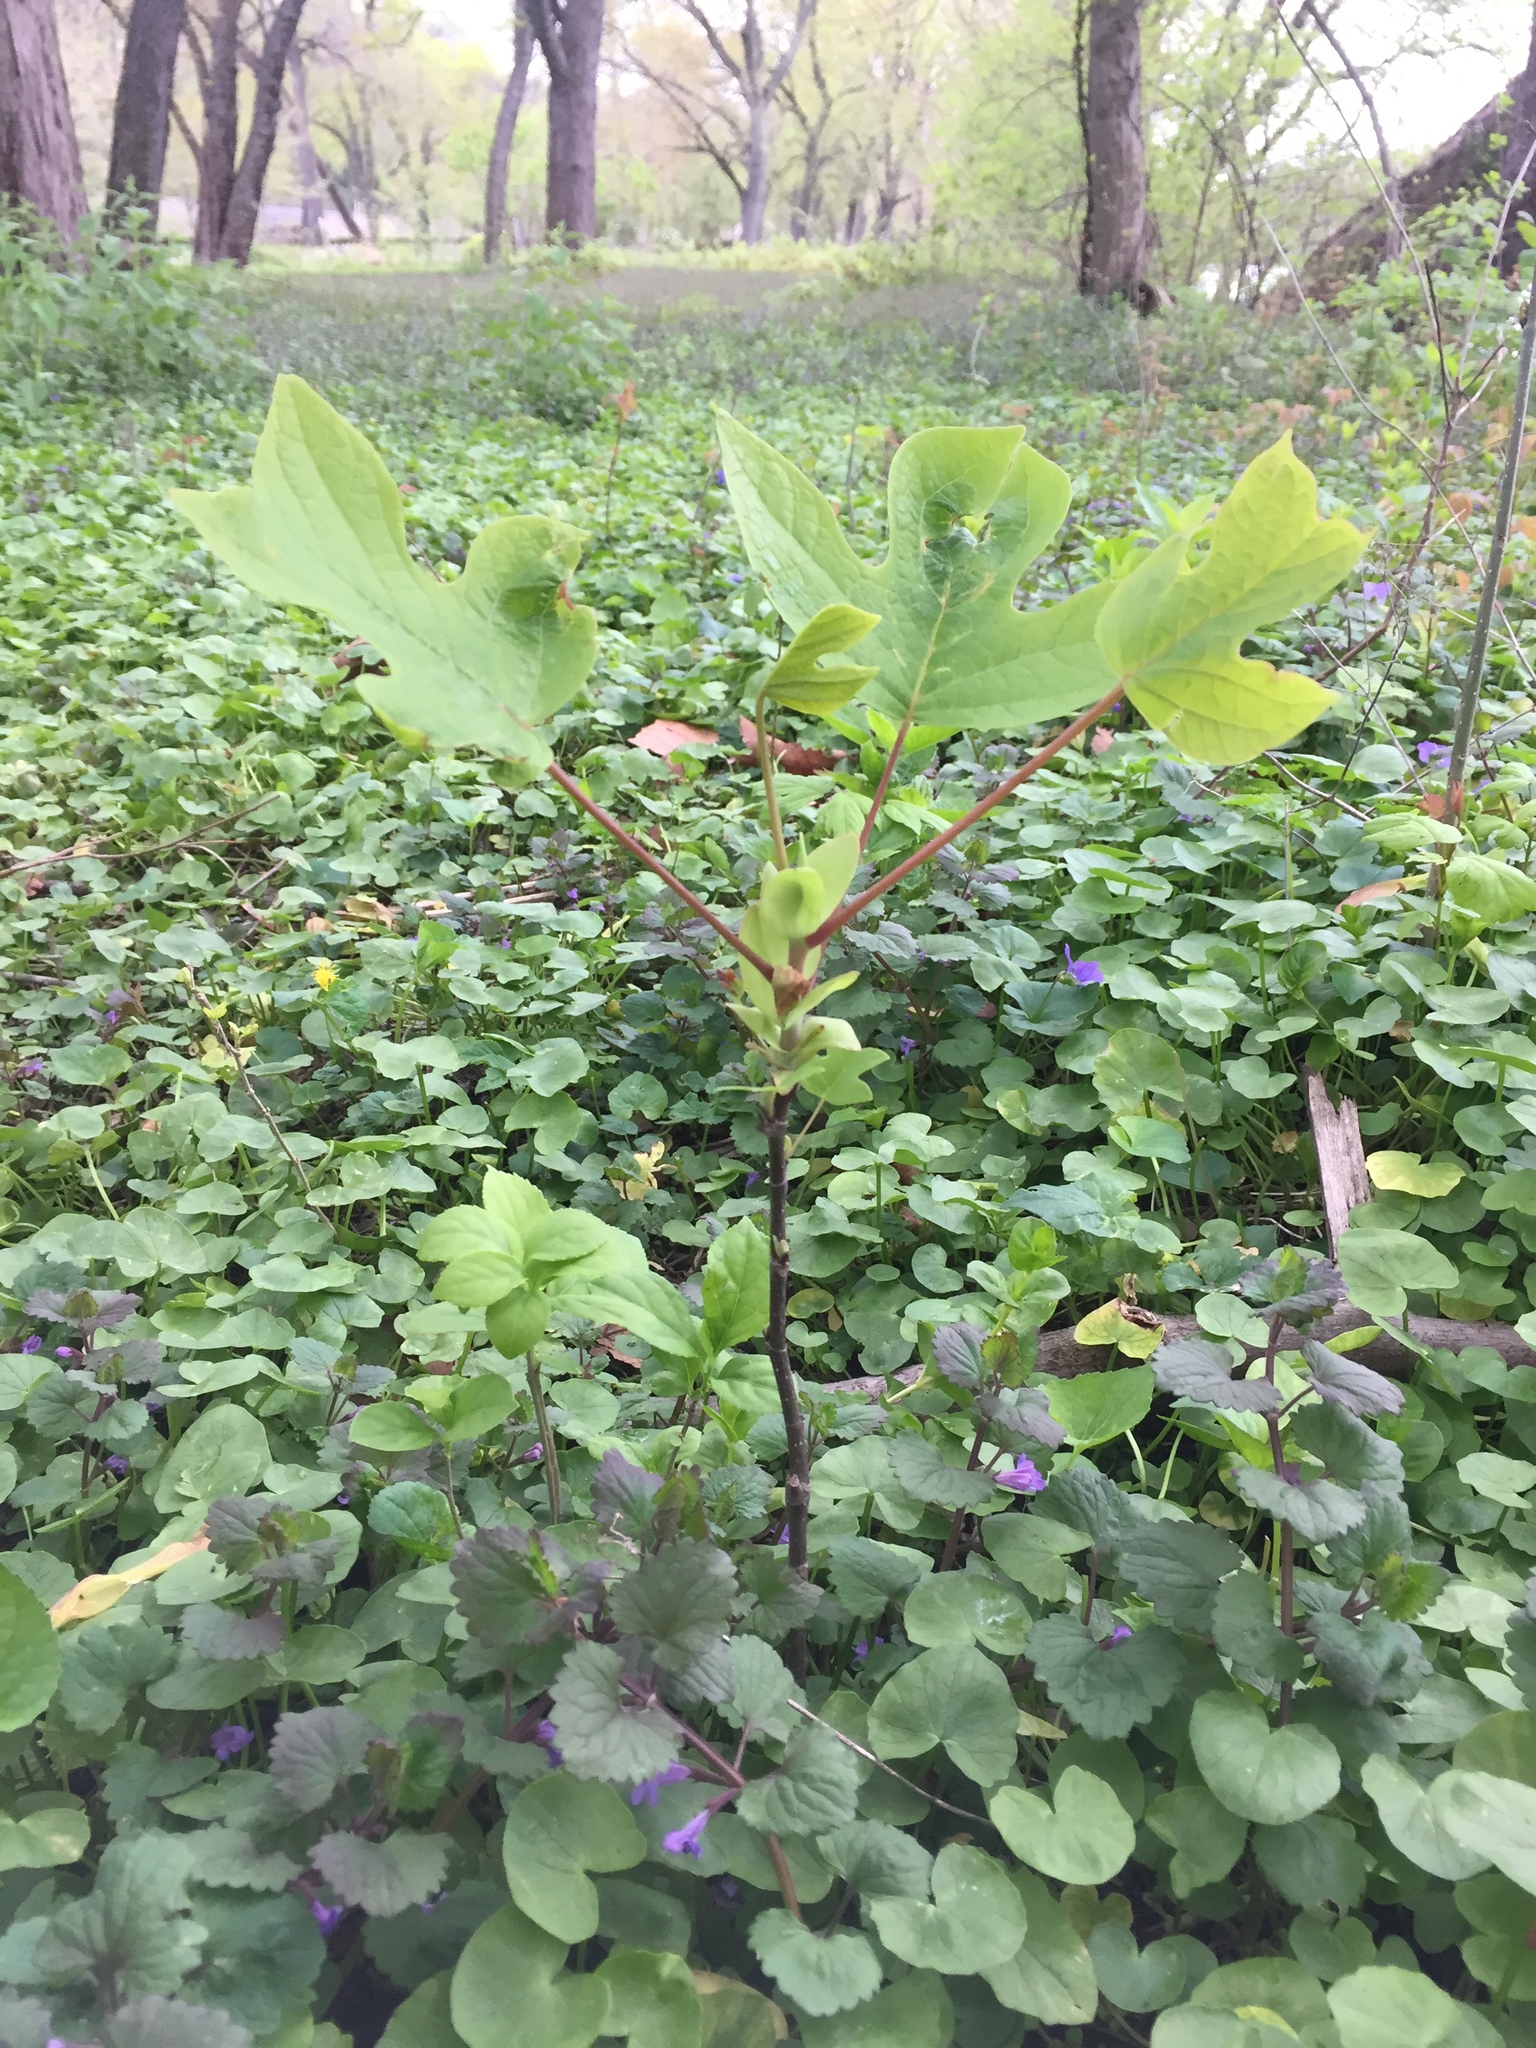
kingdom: Plantae
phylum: Tracheophyta
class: Magnoliopsida
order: Magnoliales
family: Magnoliaceae
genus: Liriodendron
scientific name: Liriodendron tulipifera
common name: Tulip tree
